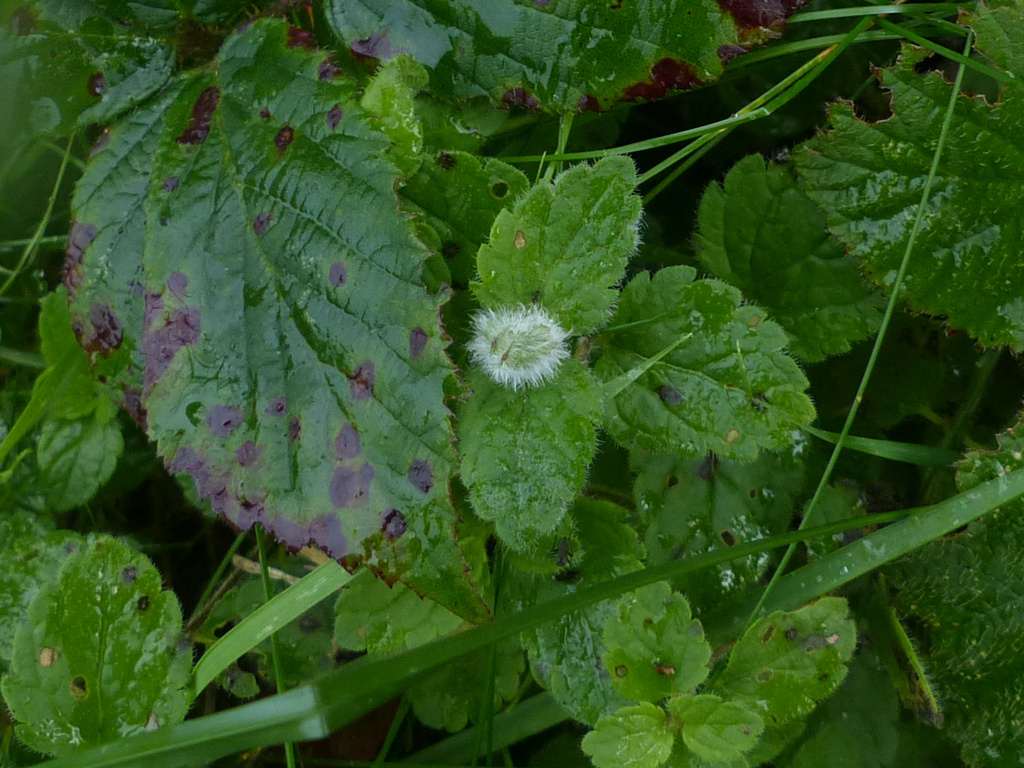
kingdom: Animalia
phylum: Arthropoda
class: Insecta
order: Diptera
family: Cecidomyiidae
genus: Jaapiella
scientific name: Jaapiella veronicae
